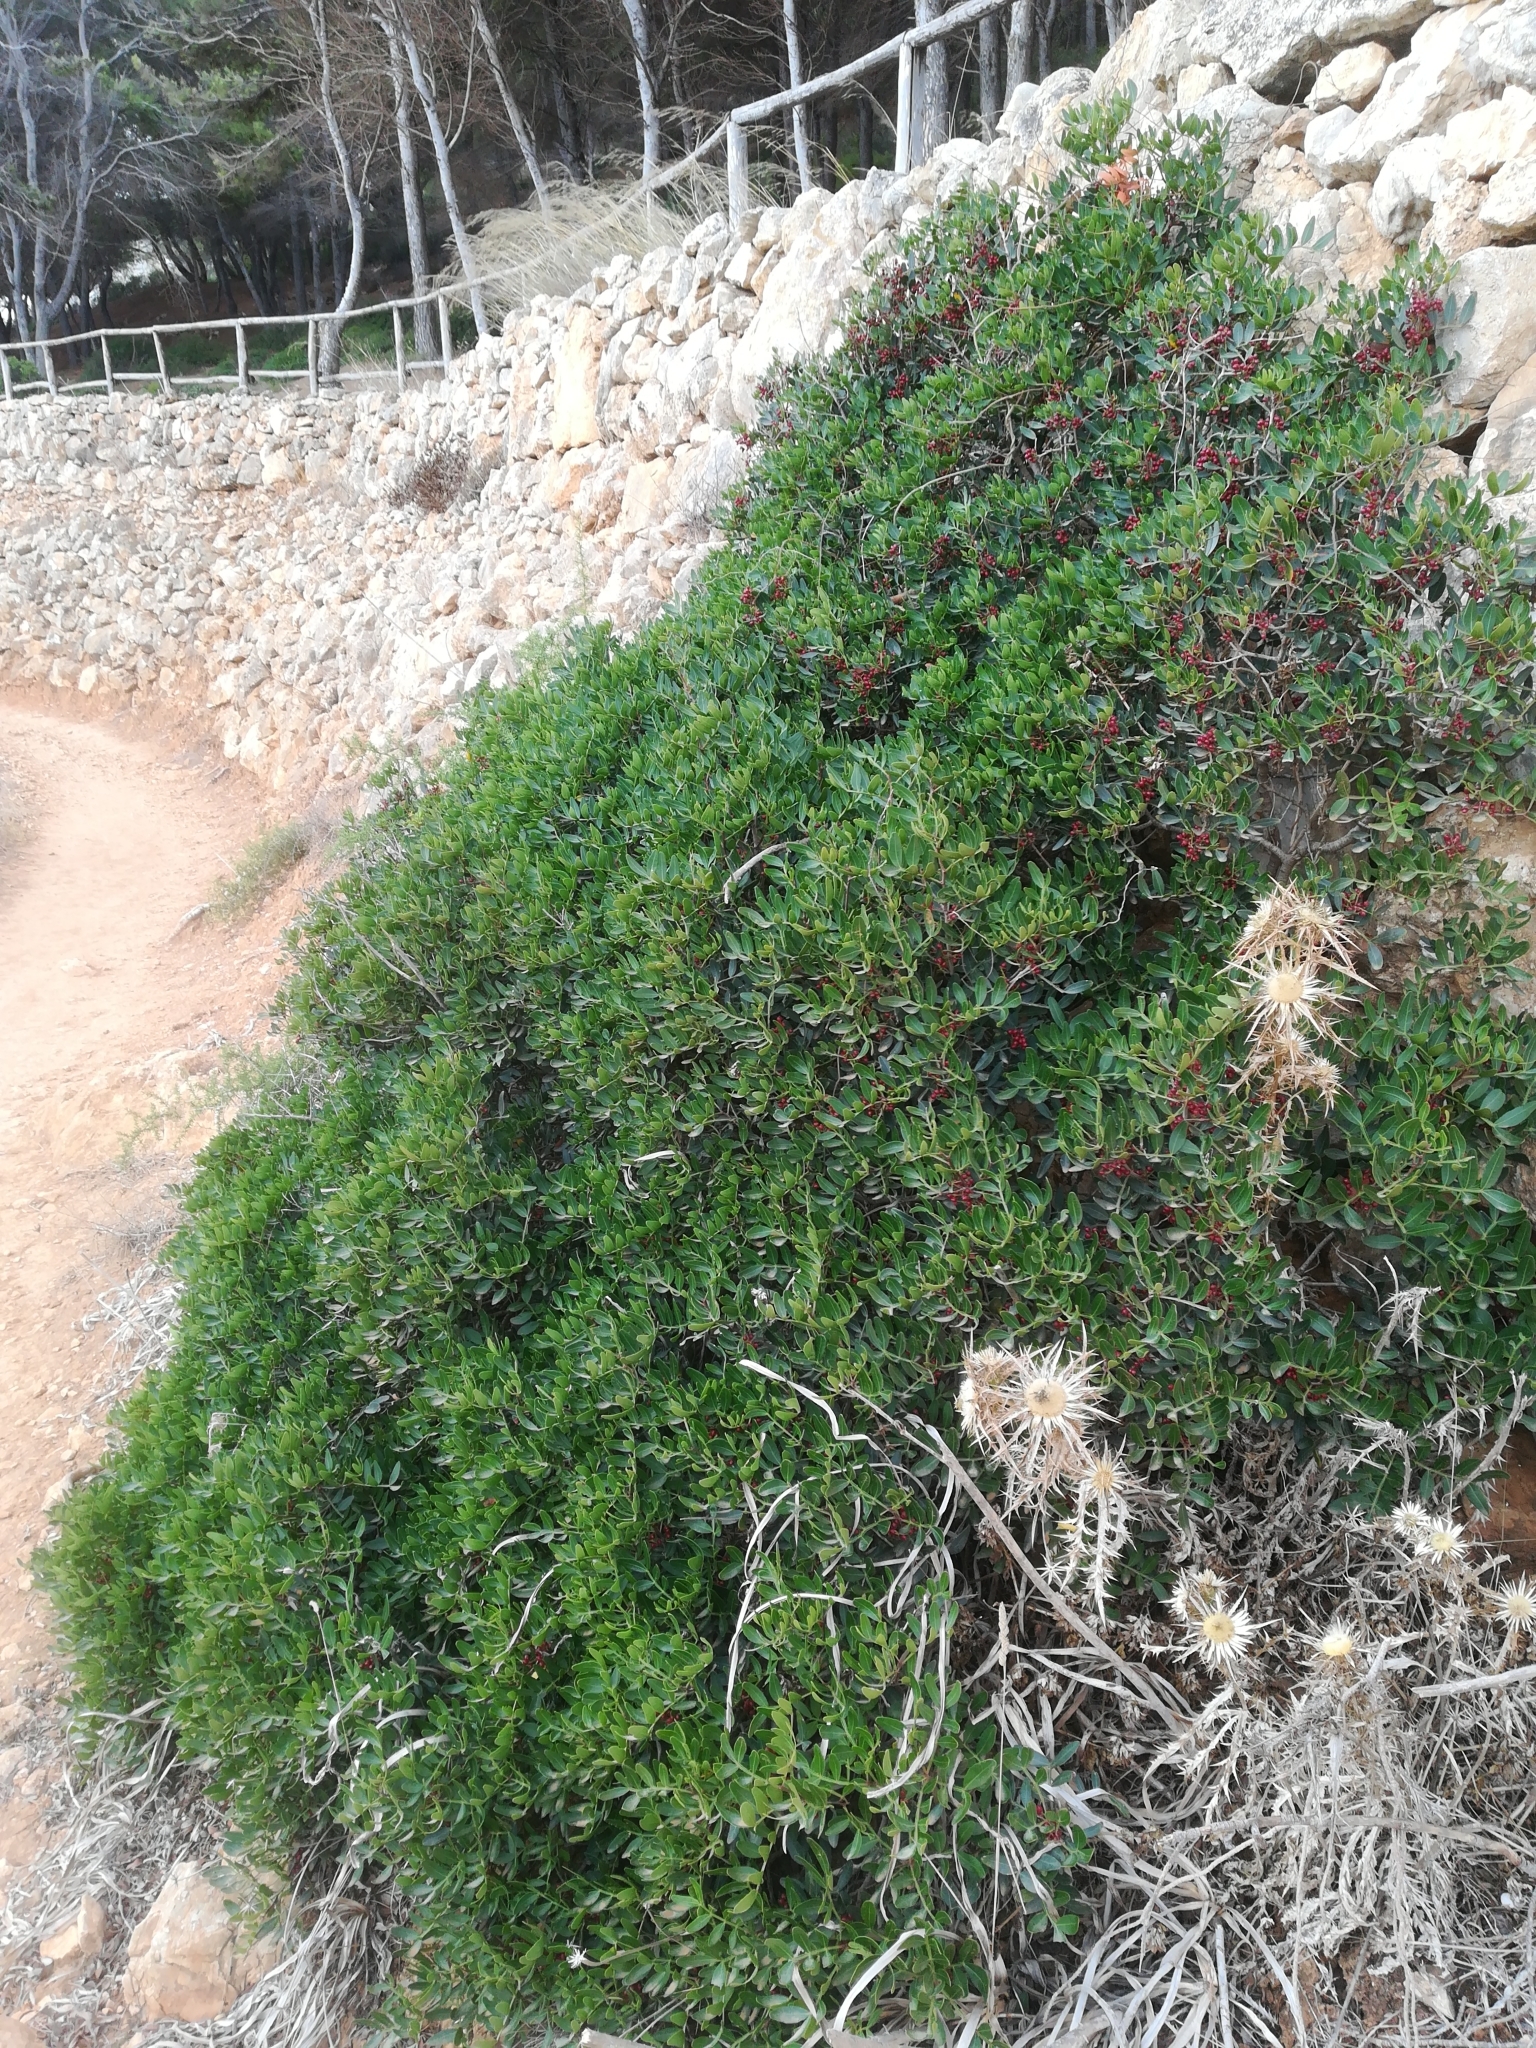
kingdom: Plantae
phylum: Tracheophyta
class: Magnoliopsida
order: Sapindales
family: Anacardiaceae
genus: Pistacia
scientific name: Pistacia lentiscus
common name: Lentisk
